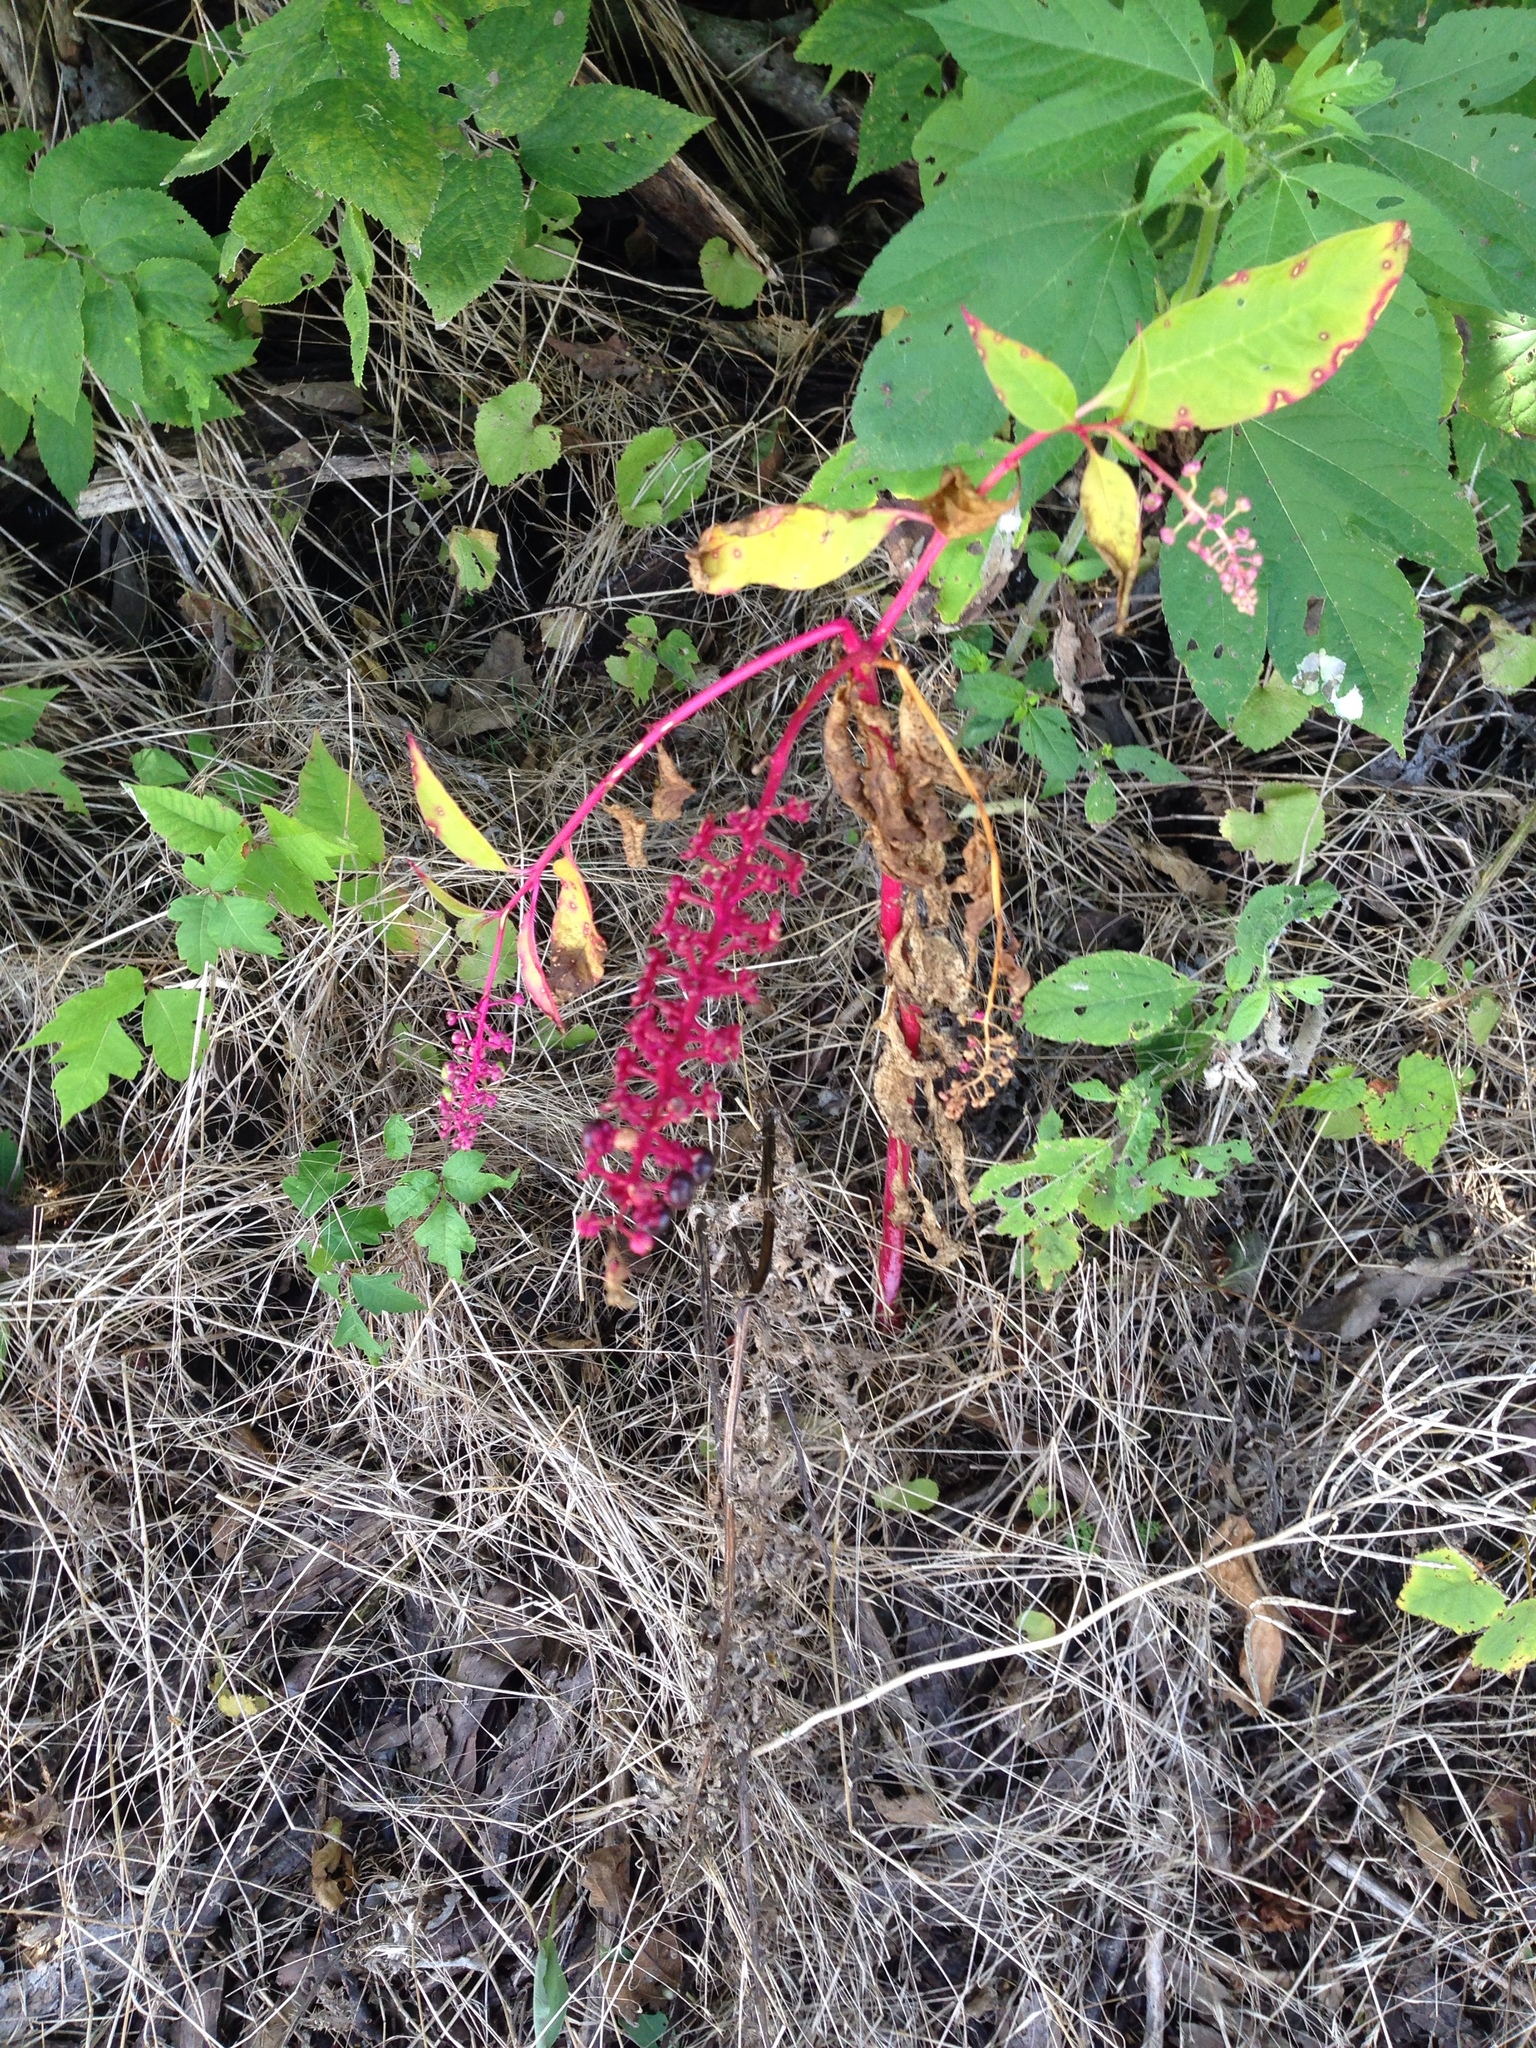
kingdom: Plantae
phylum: Tracheophyta
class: Magnoliopsida
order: Caryophyllales
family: Phytolaccaceae
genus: Phytolacca
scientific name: Phytolacca americana
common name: American pokeweed
